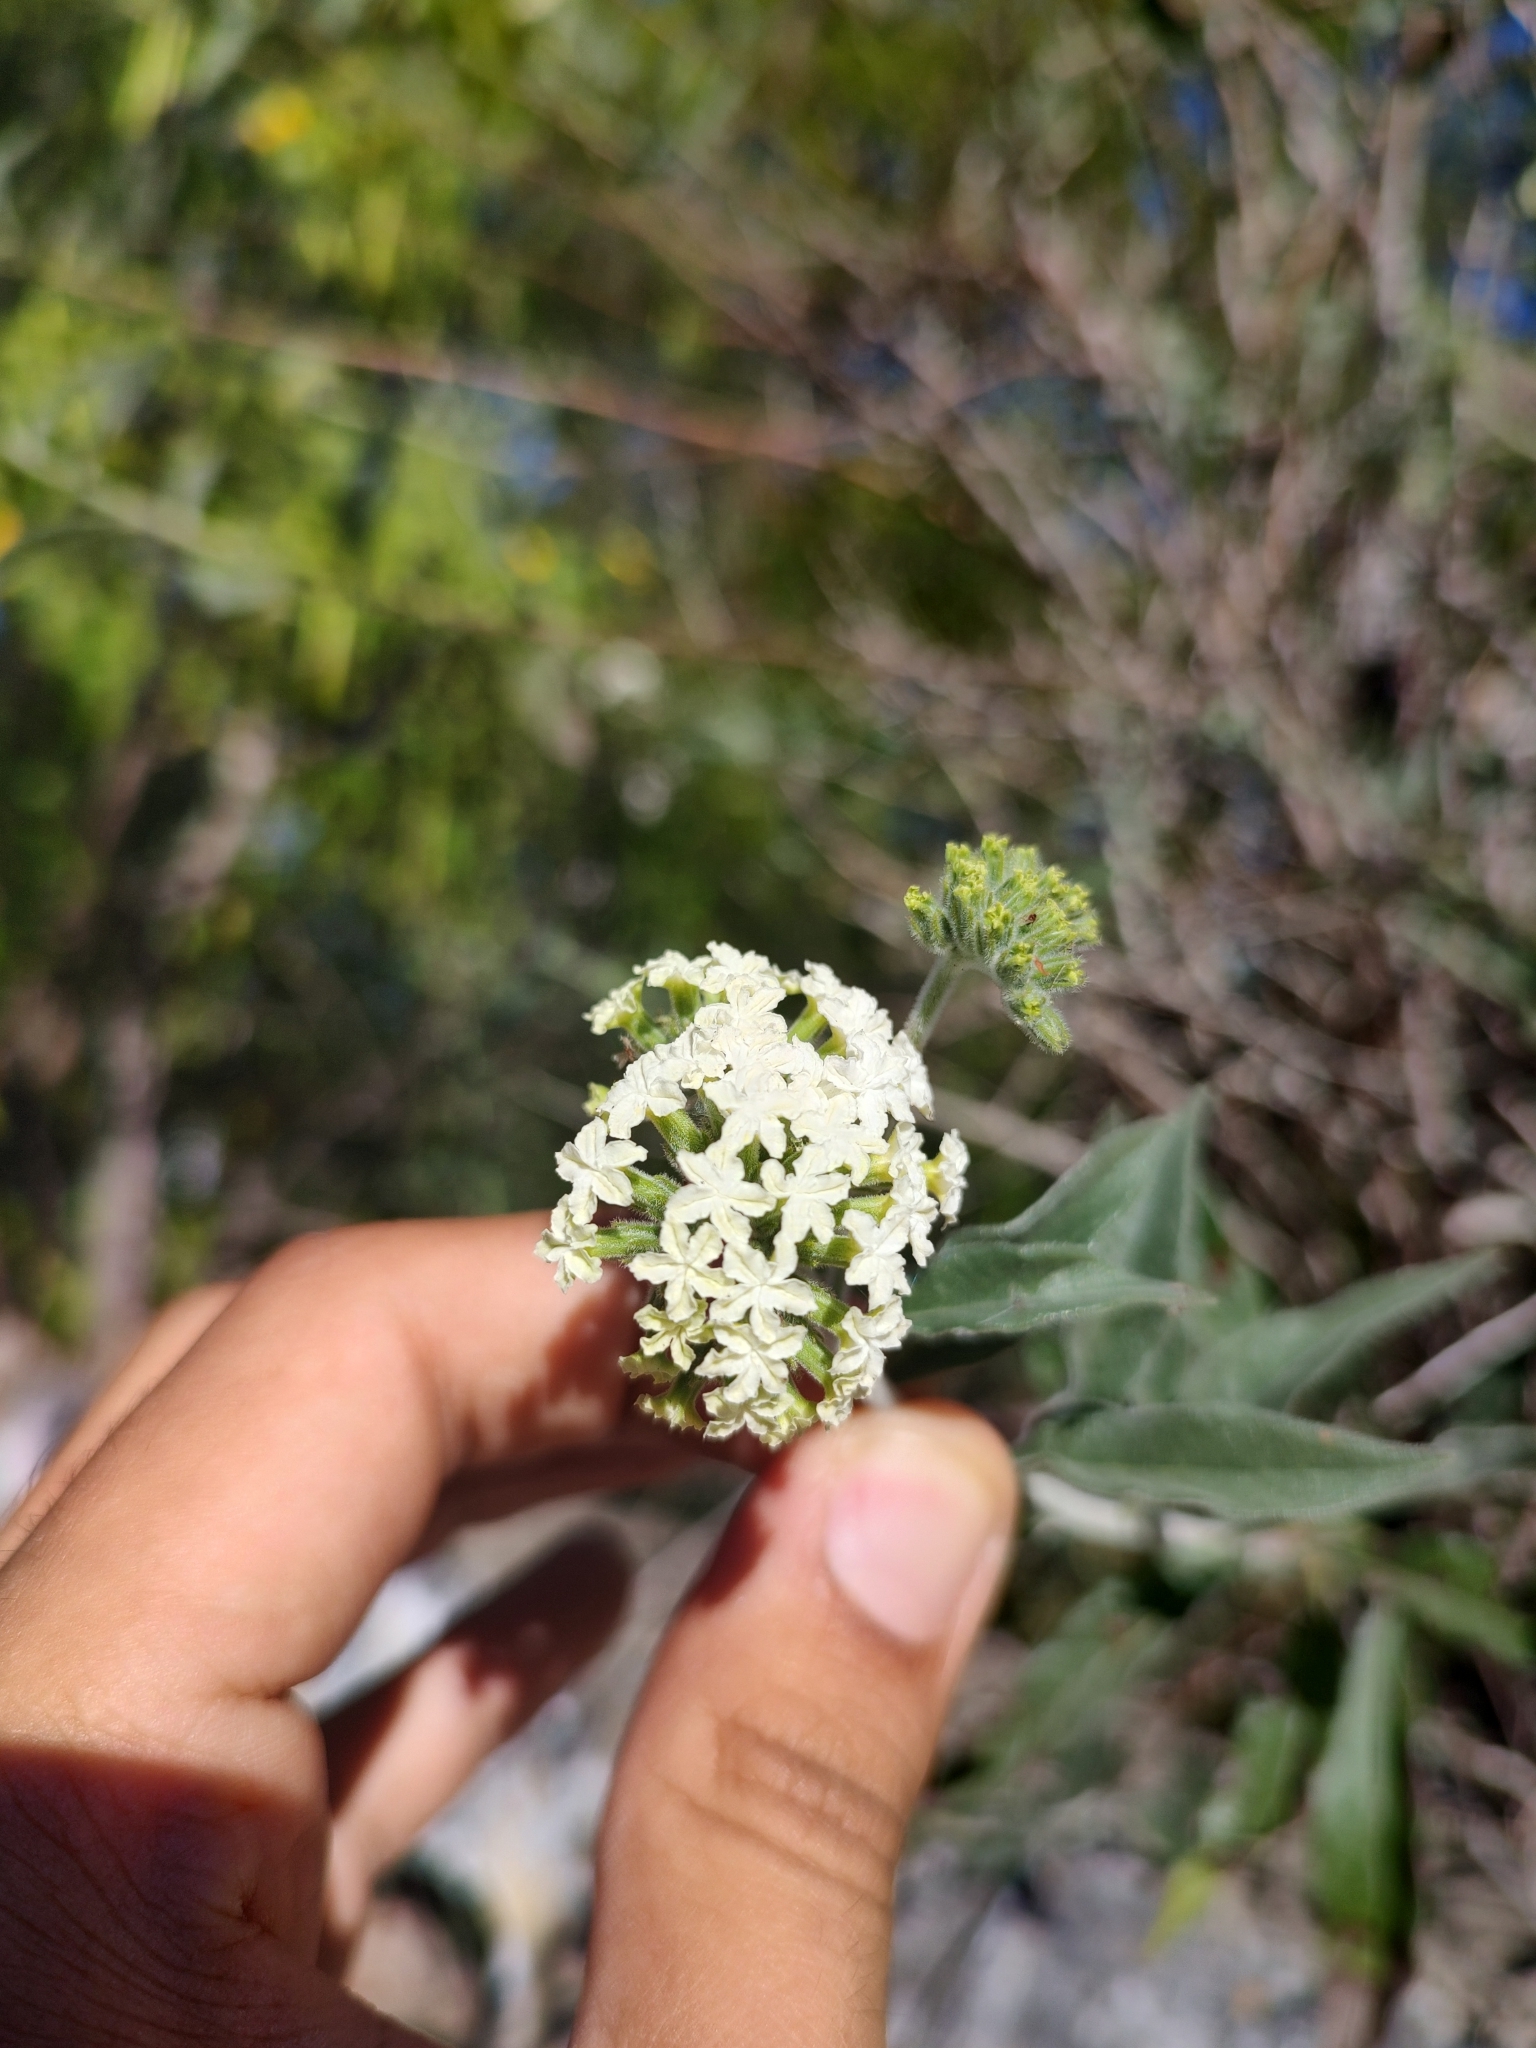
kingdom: Plantae
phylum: Tracheophyta
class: Magnoliopsida
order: Boraginales
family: Heliotropiaceae
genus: Tournefortia
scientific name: Tournefortia mutabilis
